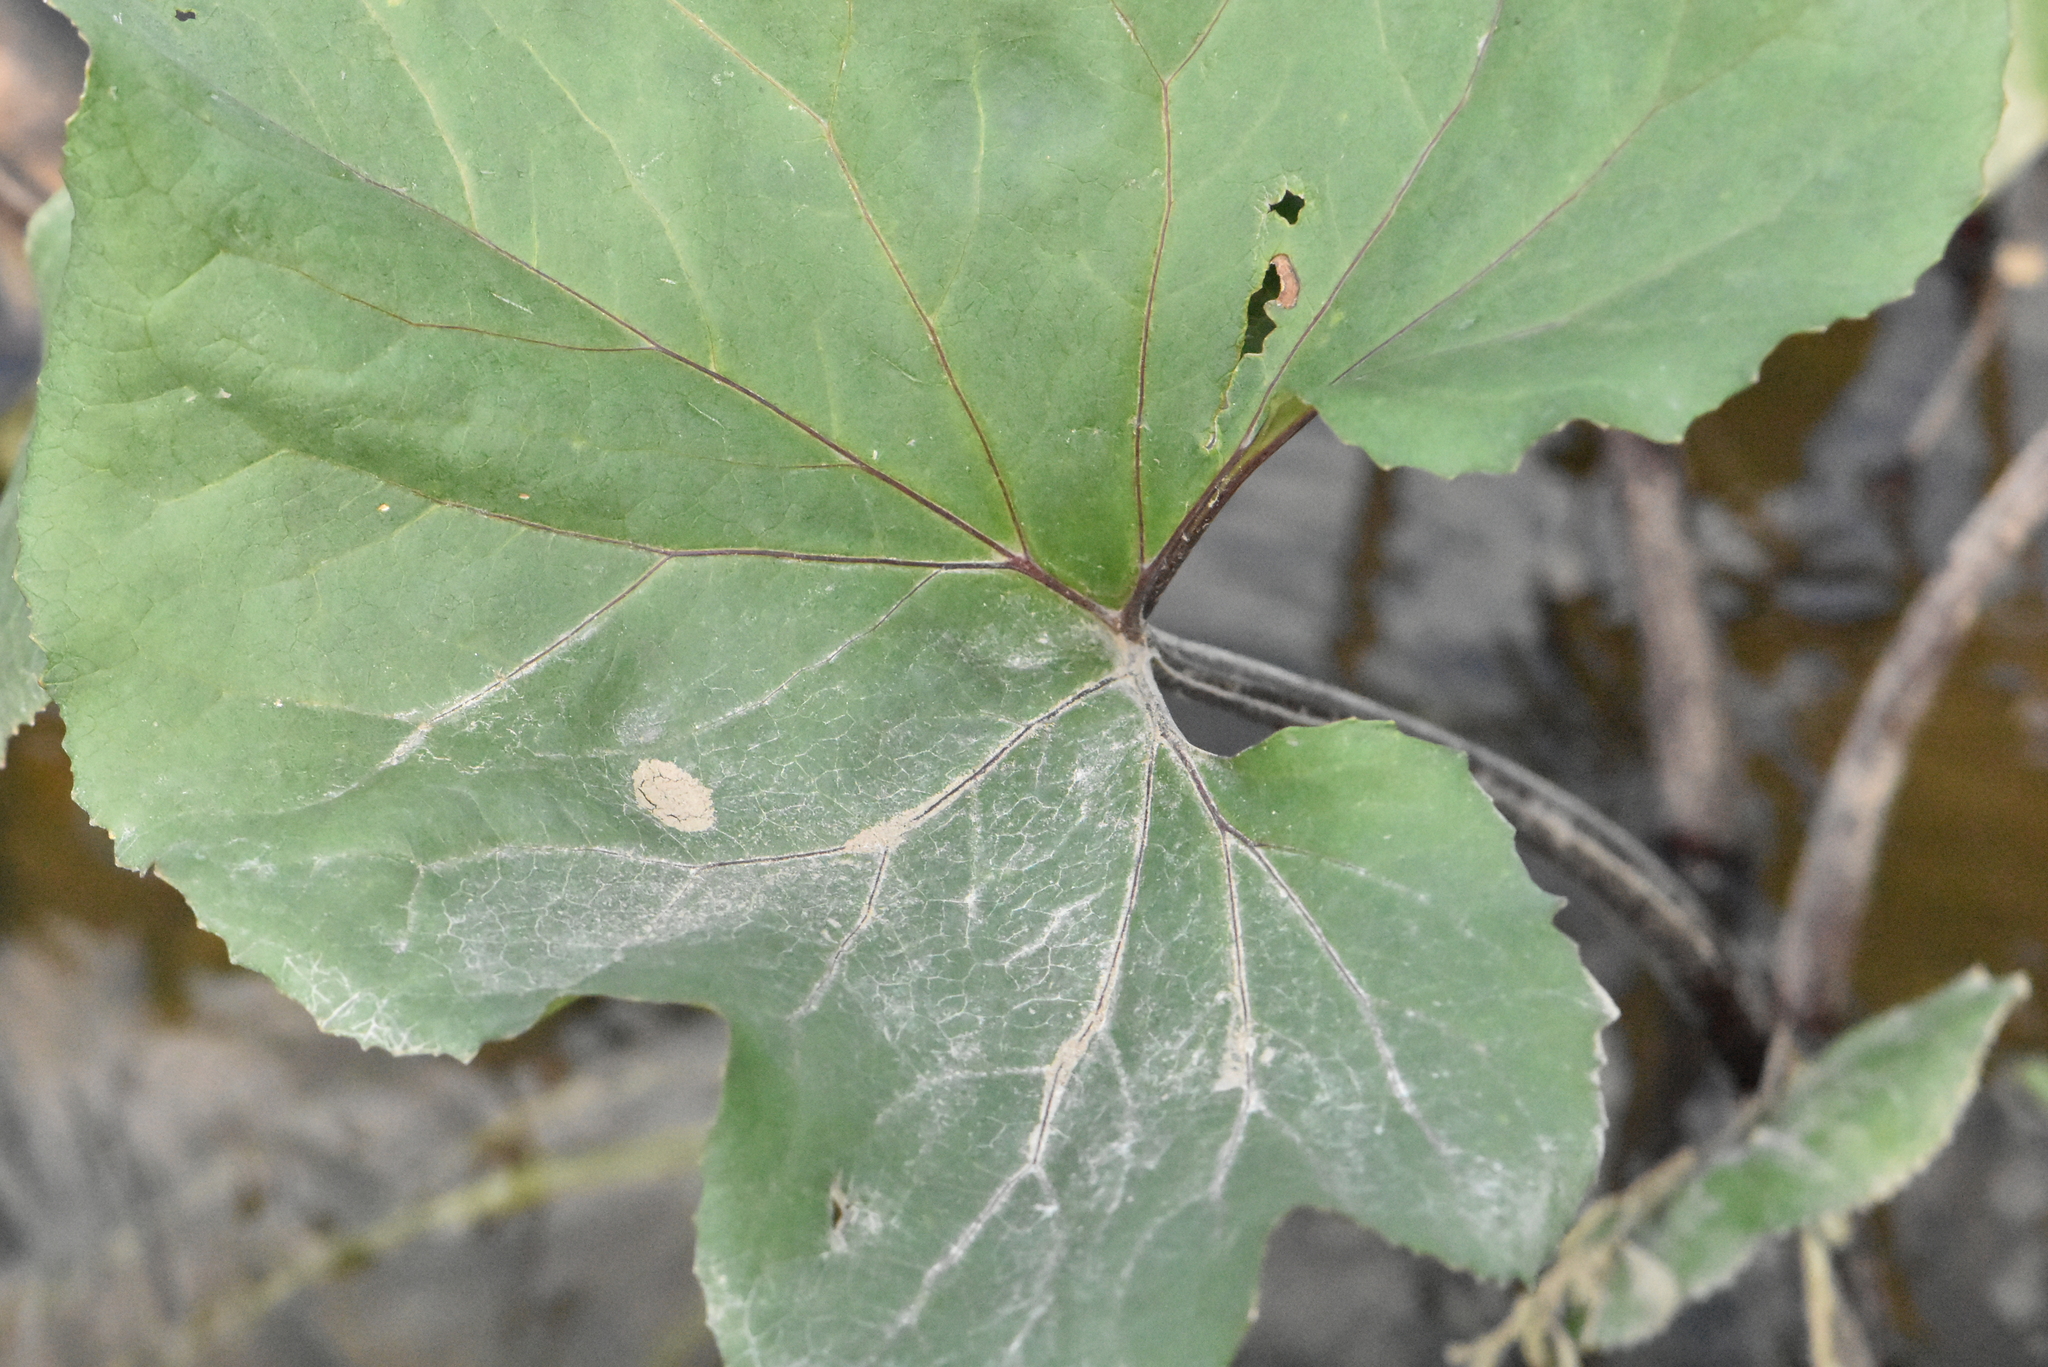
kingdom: Plantae
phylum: Tracheophyta
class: Magnoliopsida
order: Asterales
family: Asteraceae
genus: Petasites
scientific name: Petasites radiatus
